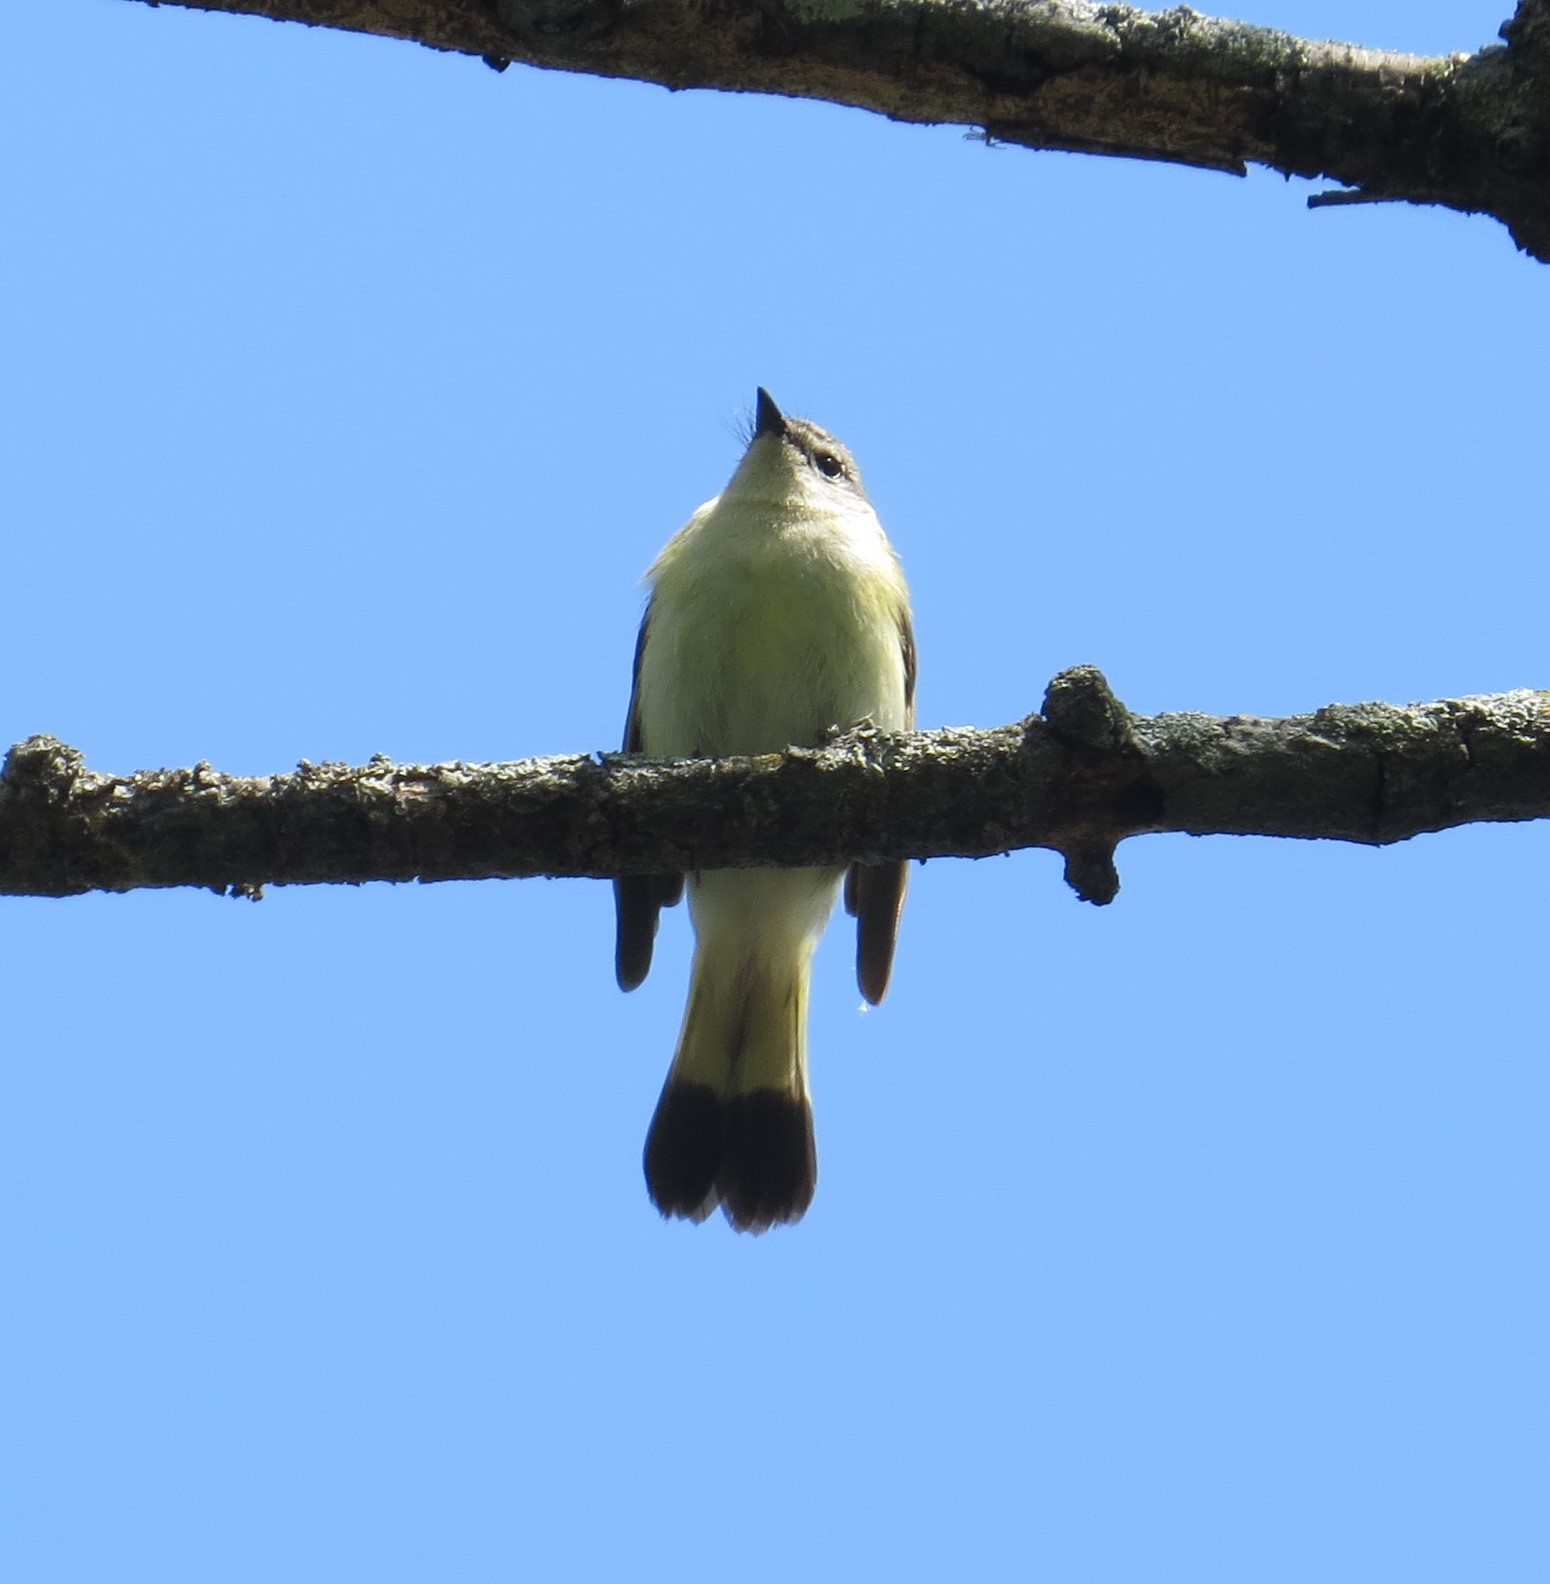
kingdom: Animalia
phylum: Chordata
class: Aves
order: Passeriformes
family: Parulidae
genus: Setophaga
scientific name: Setophaga ruticilla
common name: American redstart
